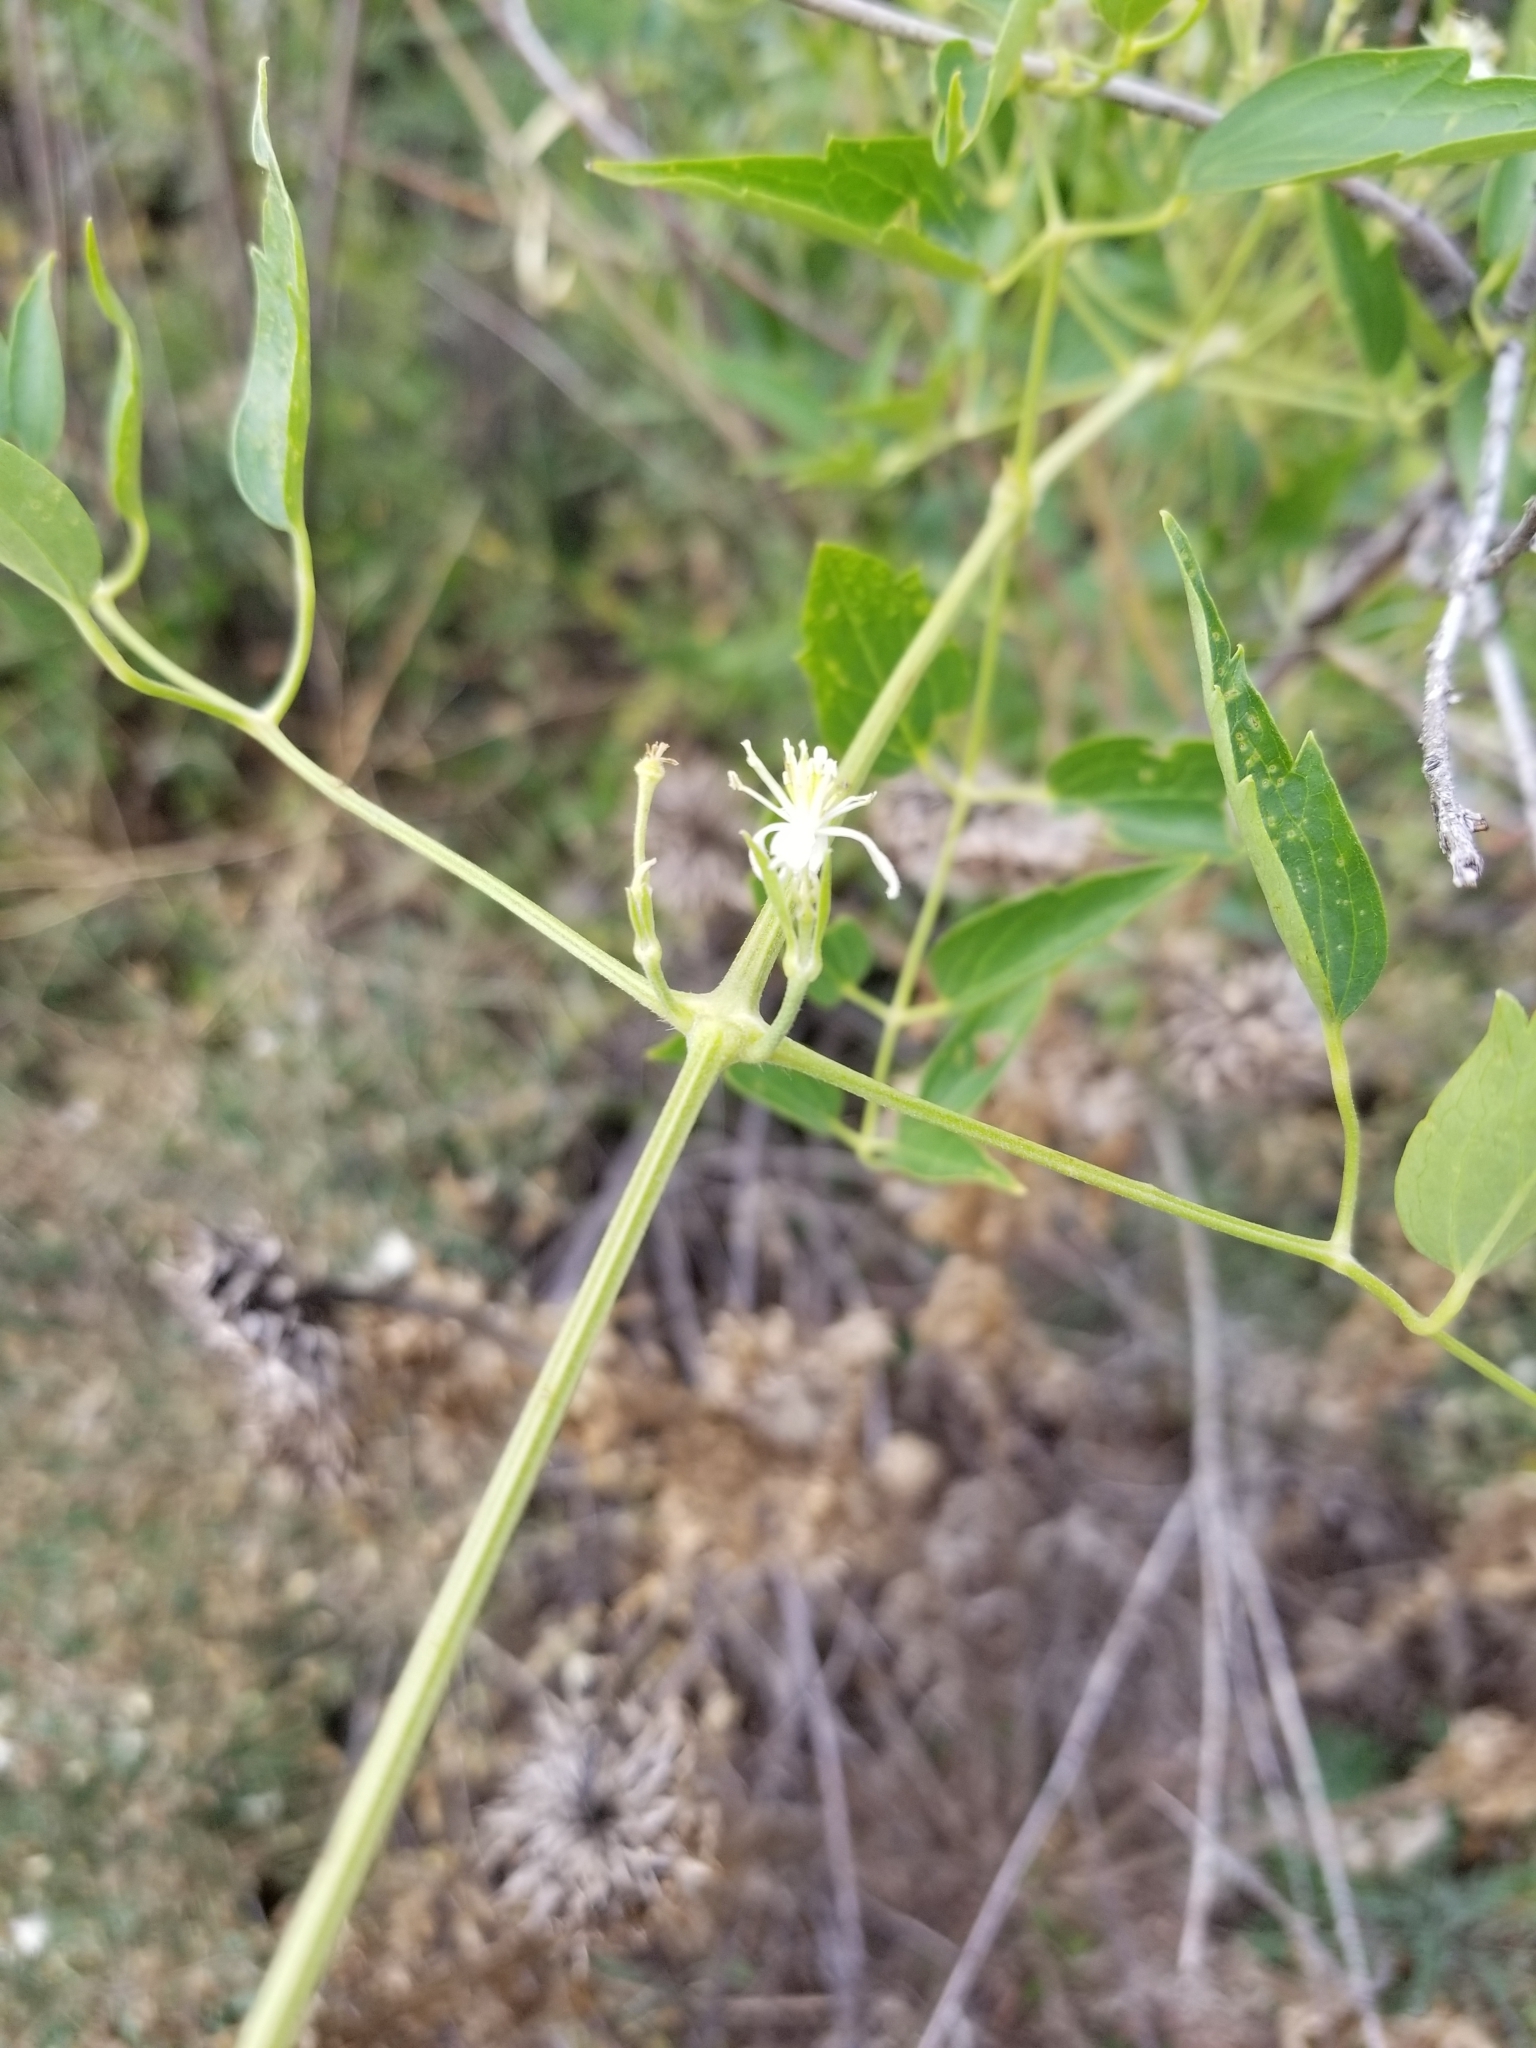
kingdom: Plantae
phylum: Tracheophyta
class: Magnoliopsida
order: Ranunculales
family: Ranunculaceae
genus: Clematis
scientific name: Clematis ligusticifolia
